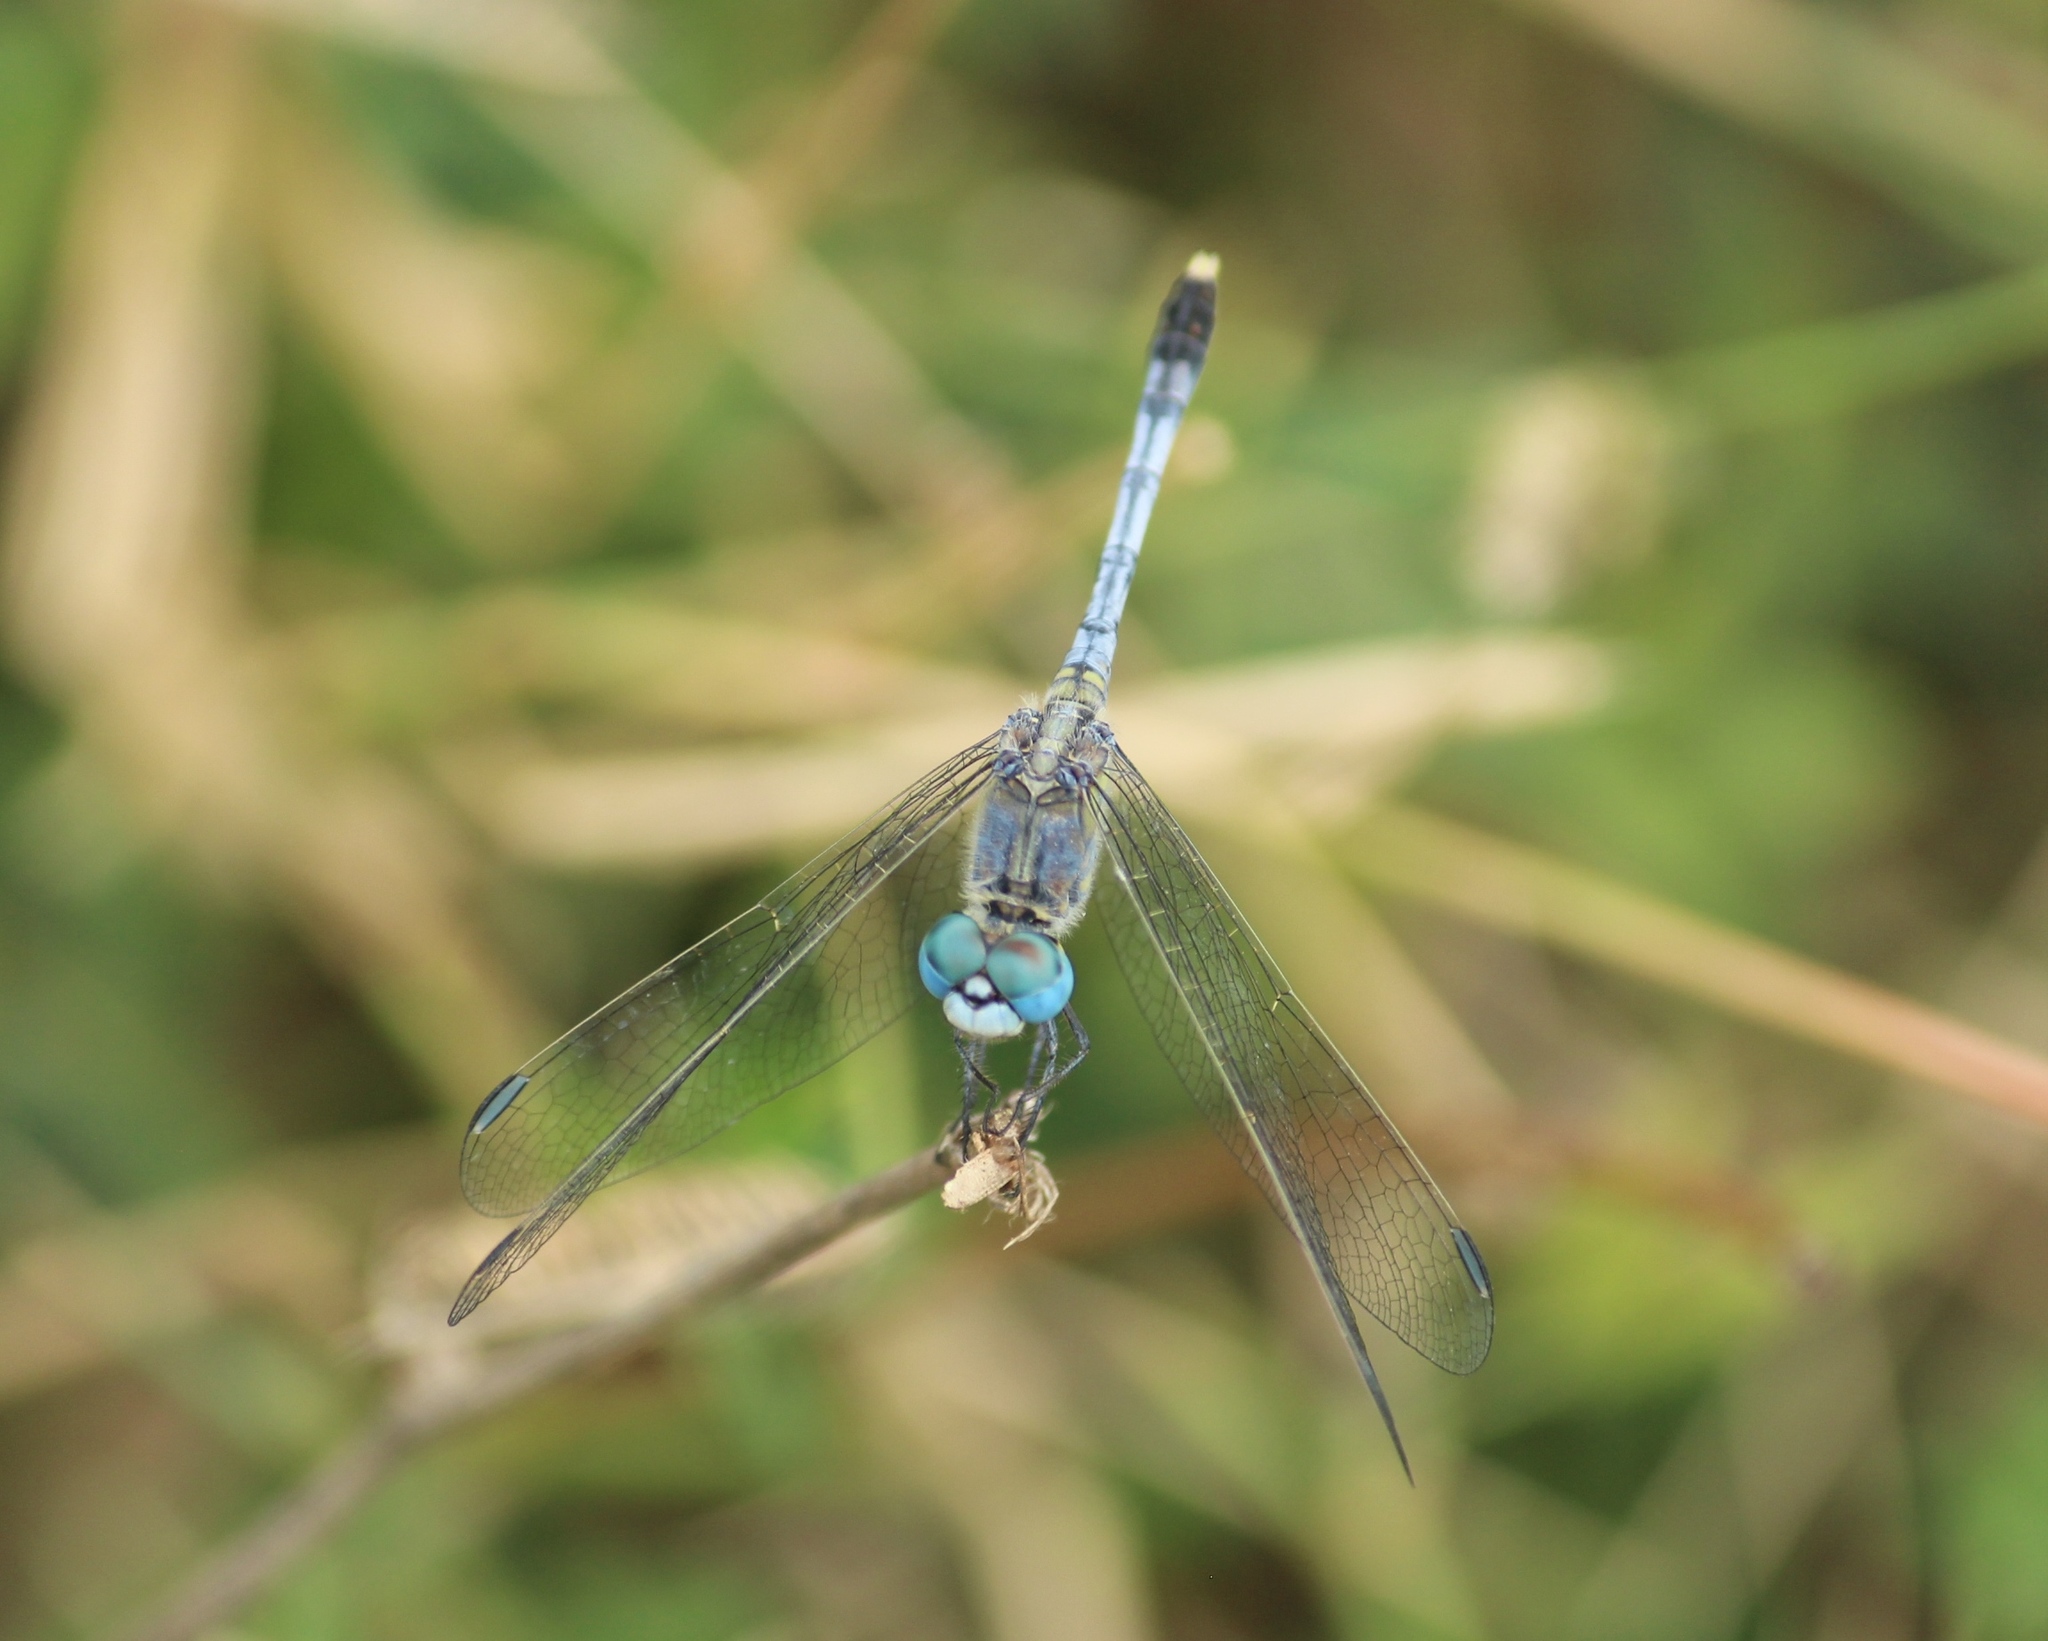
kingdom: Animalia
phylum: Arthropoda
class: Insecta
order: Odonata
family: Libellulidae
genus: Diplacodes
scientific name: Diplacodes trivialis
